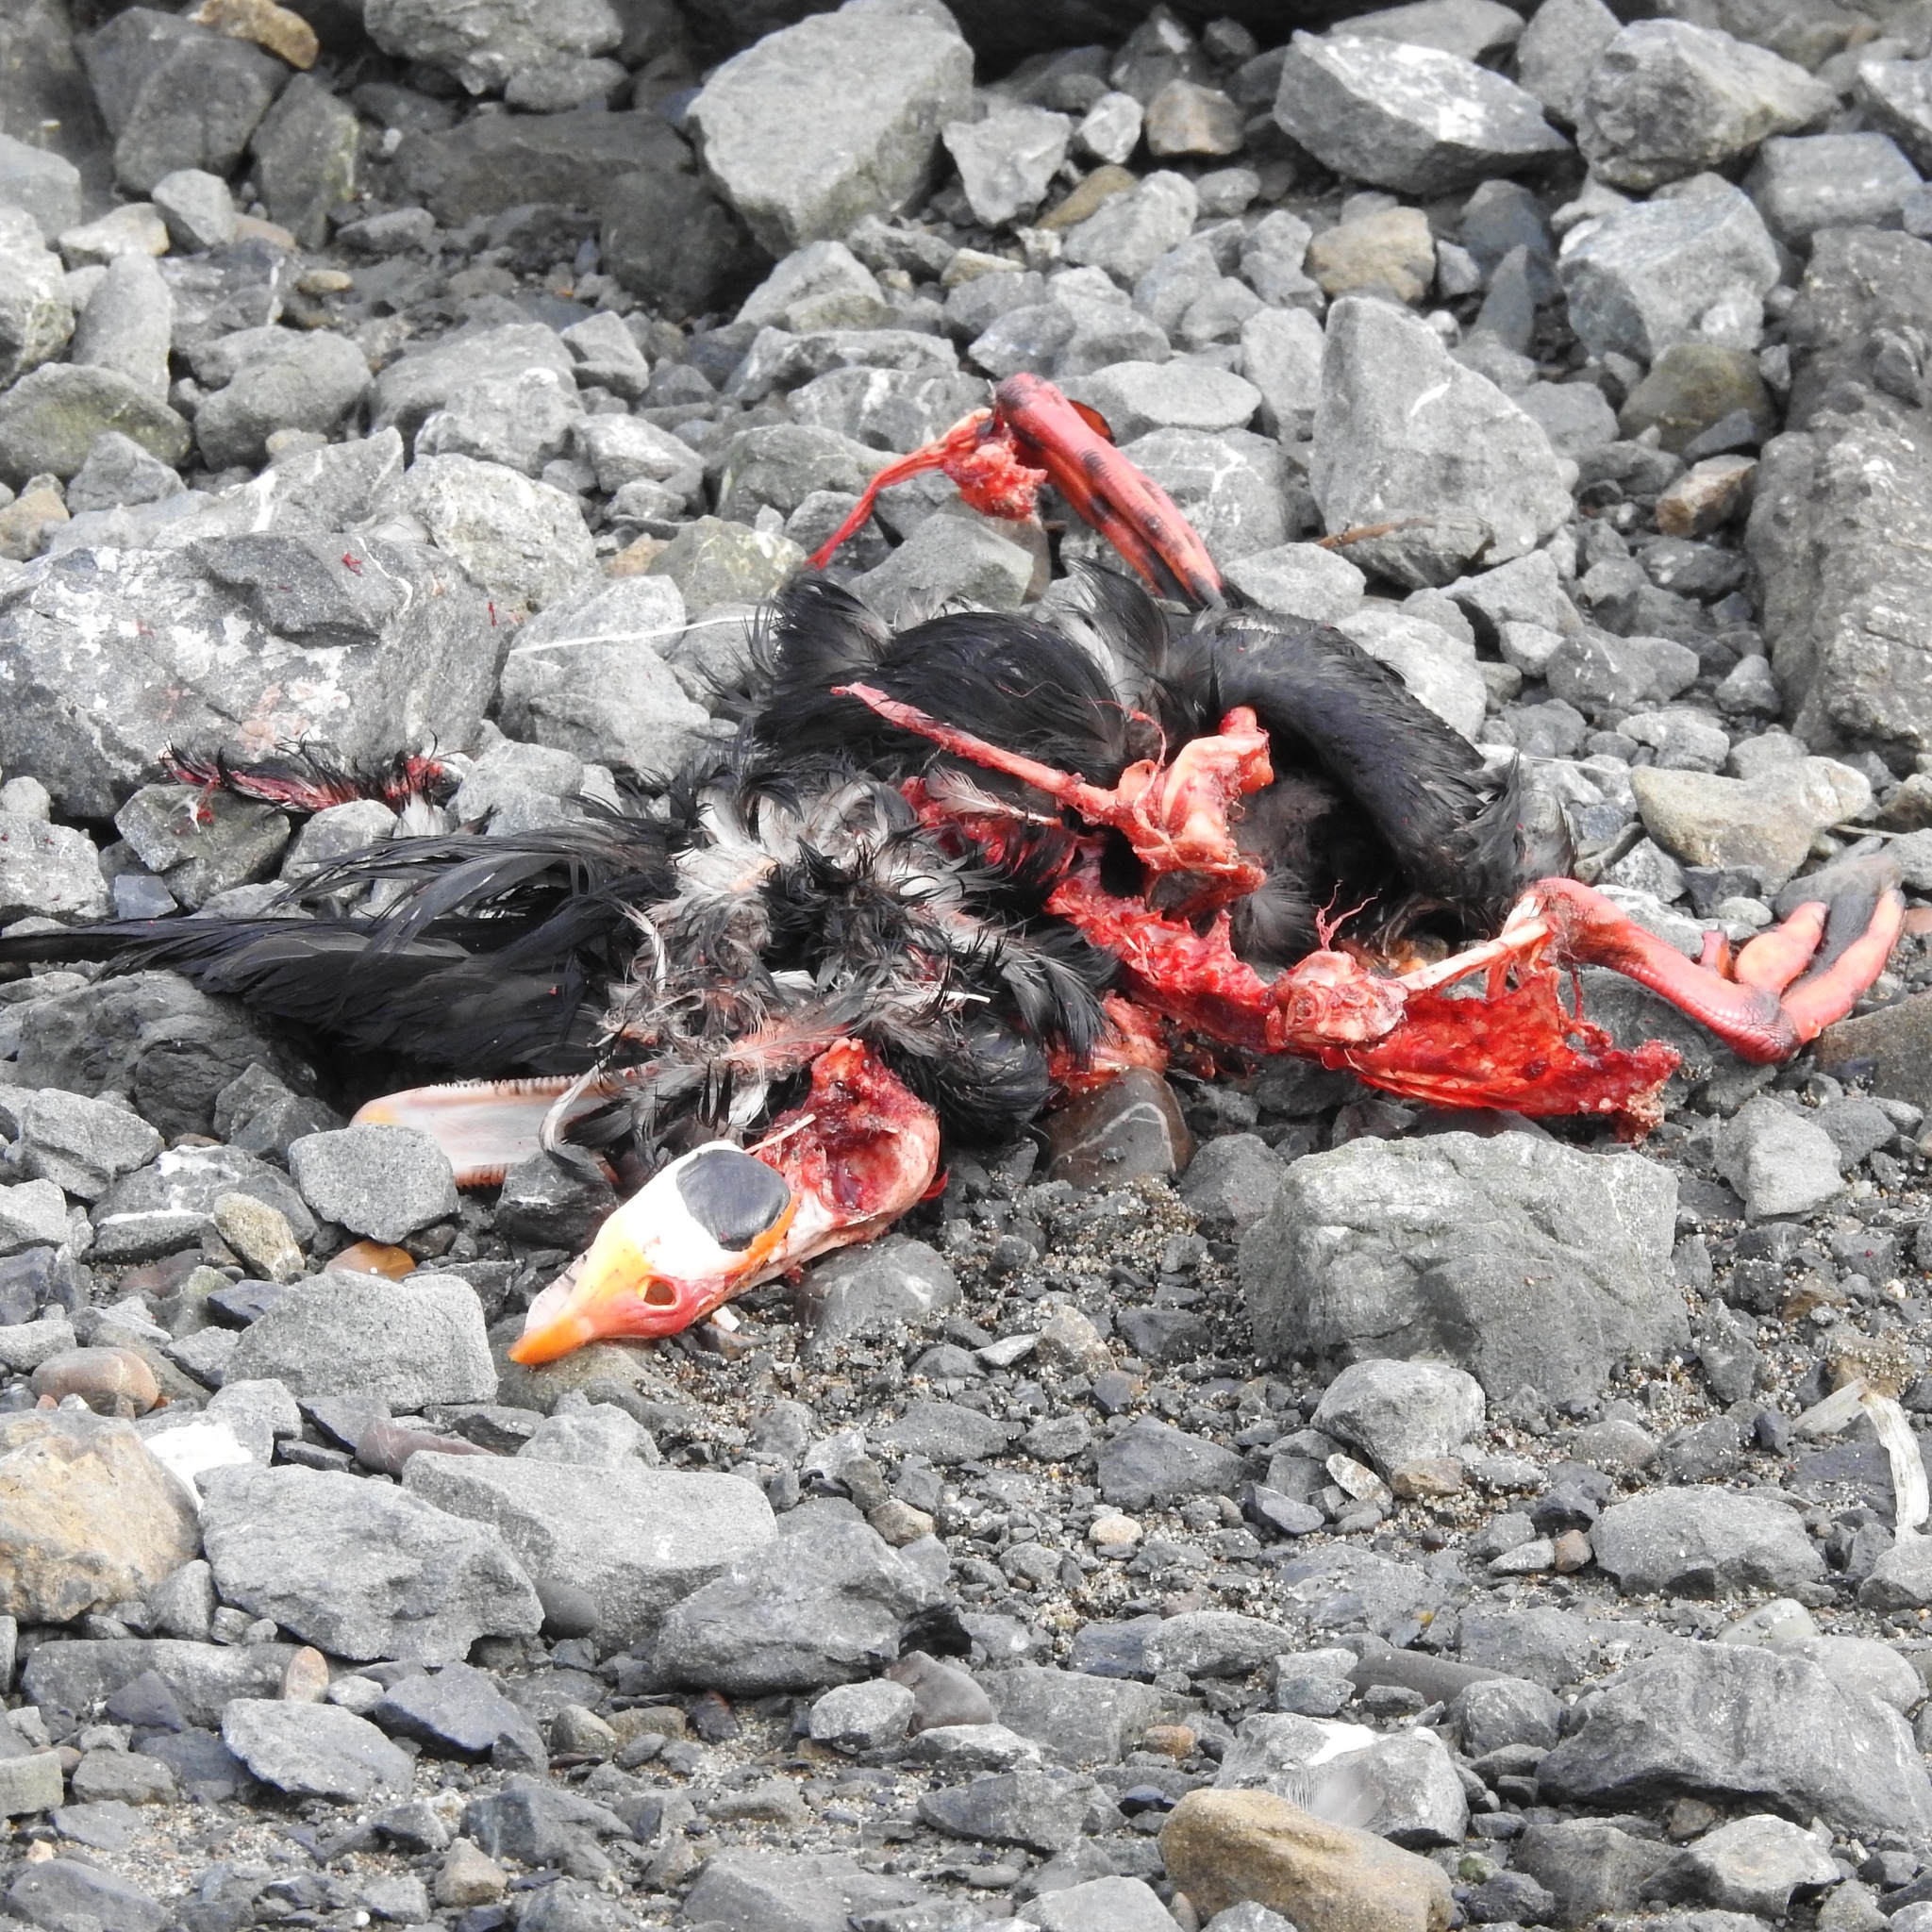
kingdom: Animalia
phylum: Chordata
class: Aves
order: Anseriformes
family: Anatidae
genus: Melanitta
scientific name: Melanitta perspicillata
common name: Surf scoter
